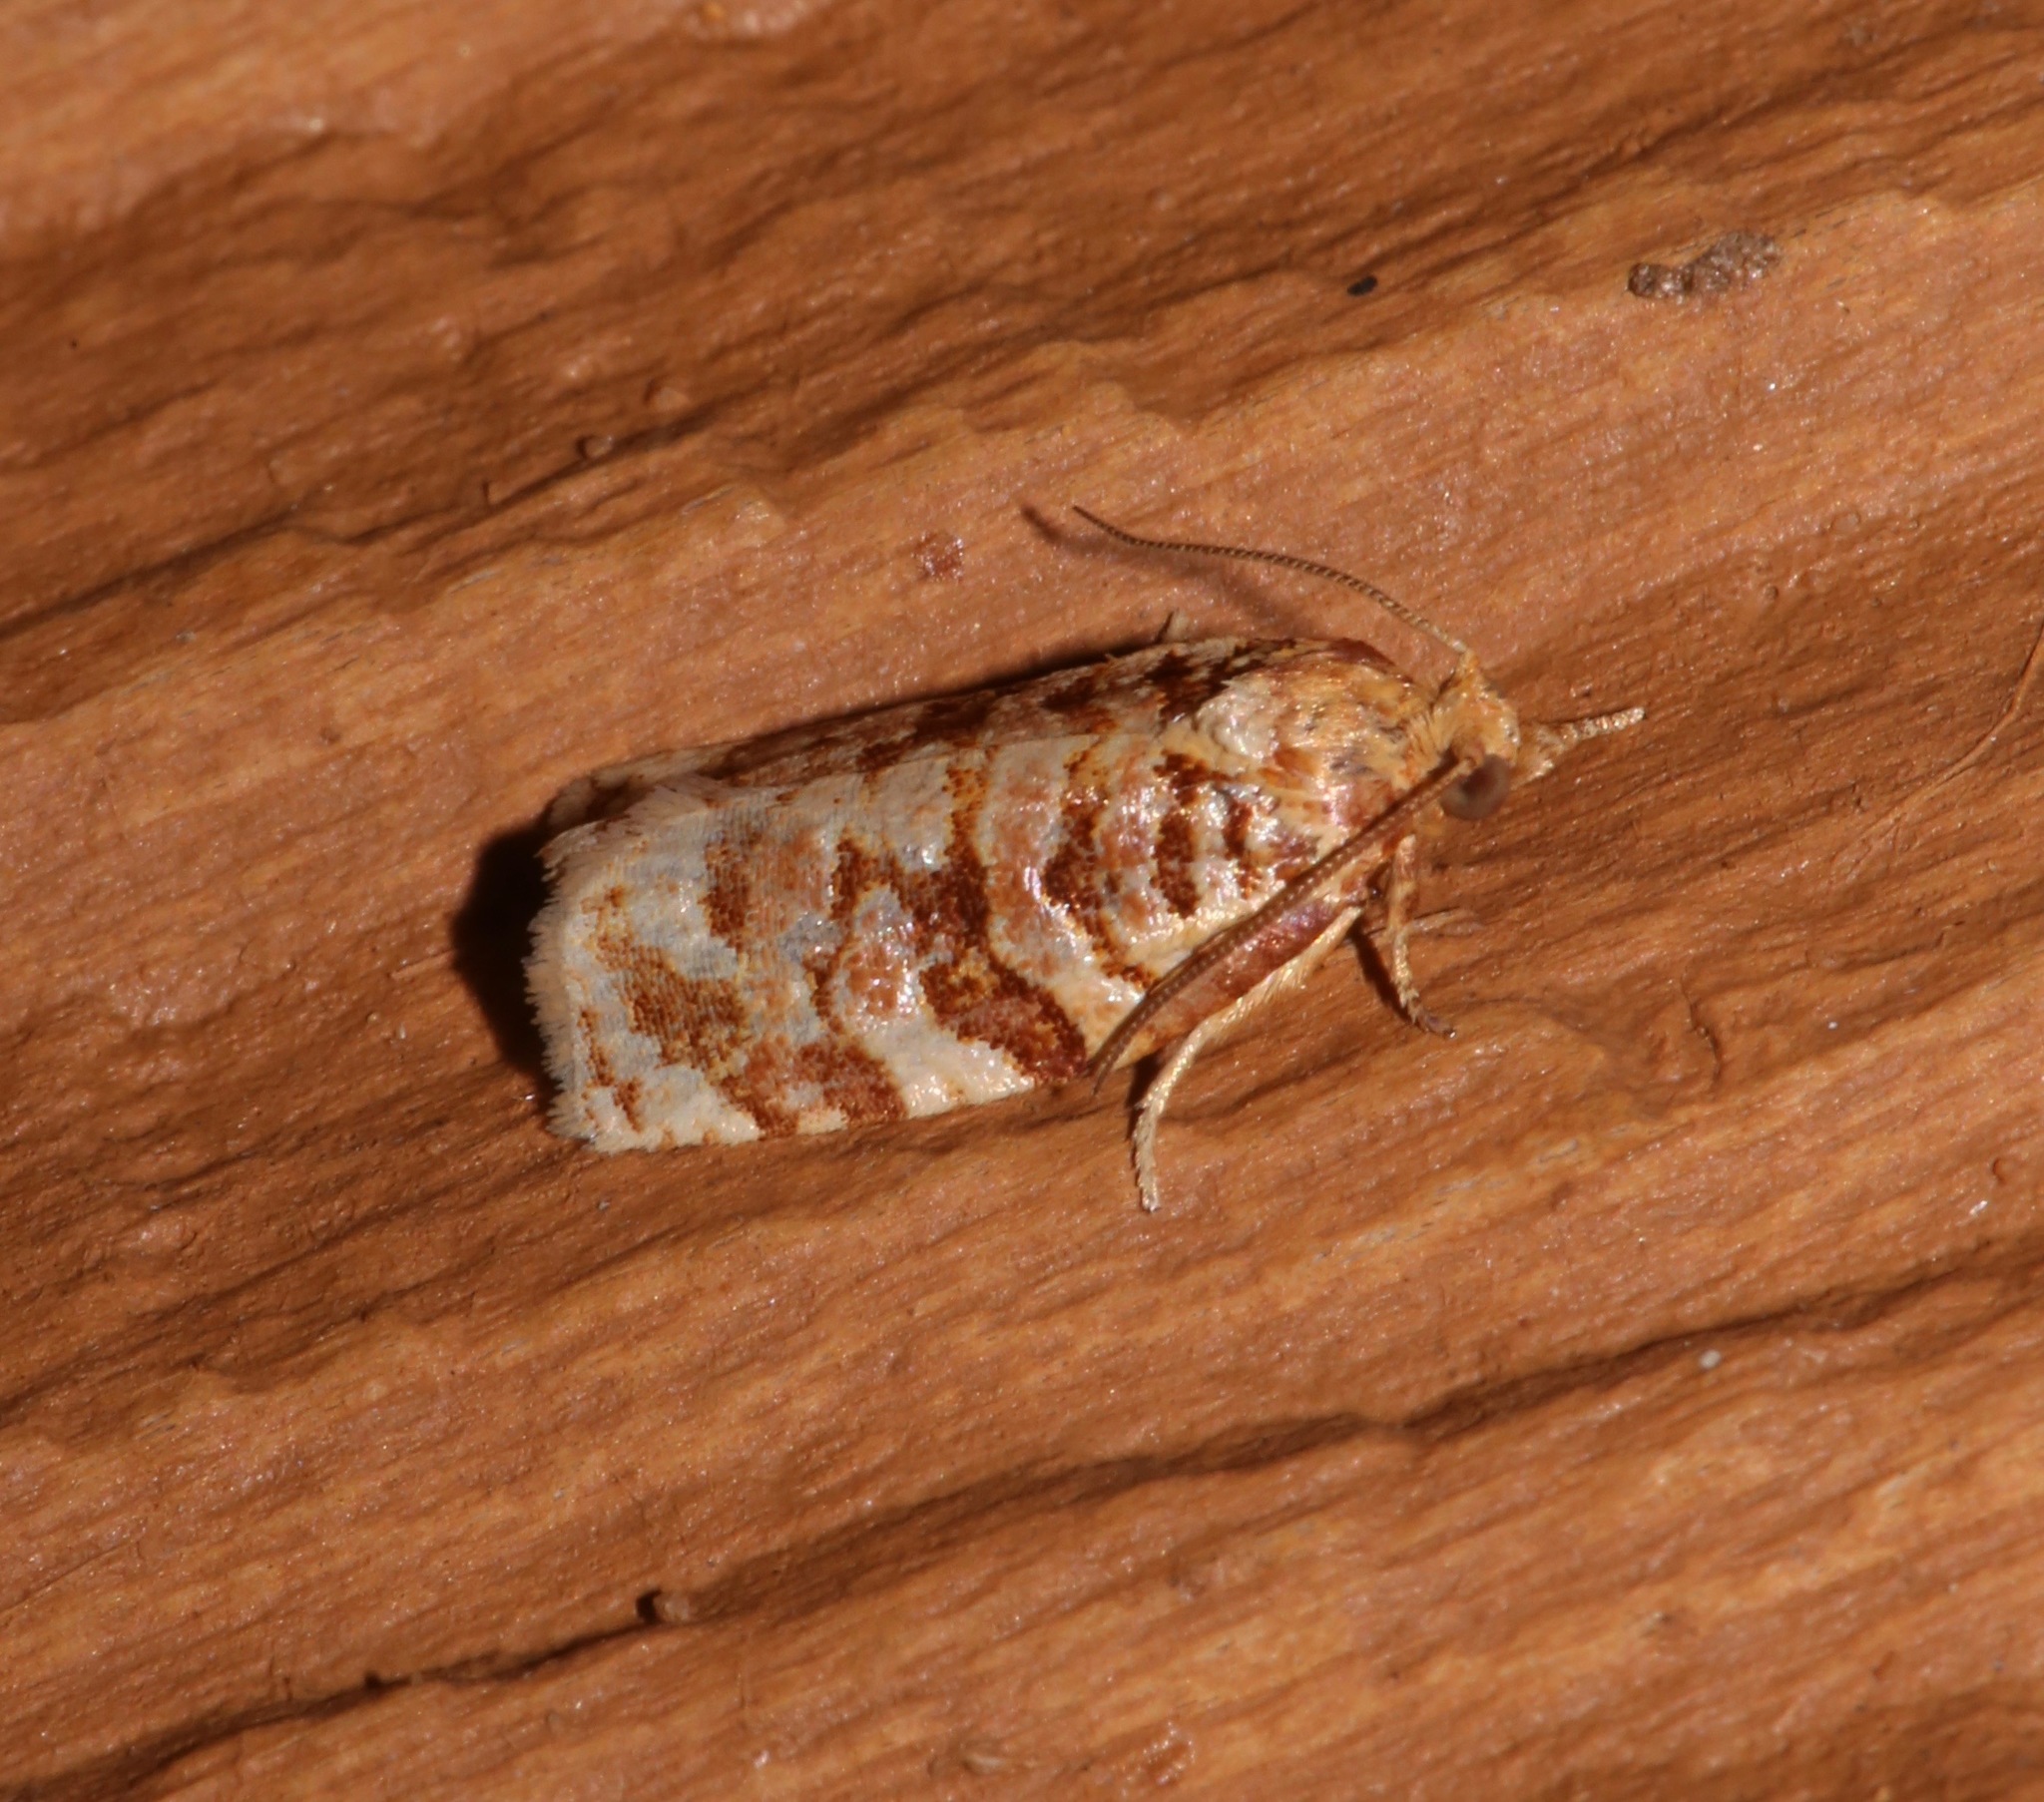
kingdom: Animalia
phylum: Arthropoda
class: Insecta
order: Lepidoptera
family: Tortricidae
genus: Archips
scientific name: Archips georgiana
